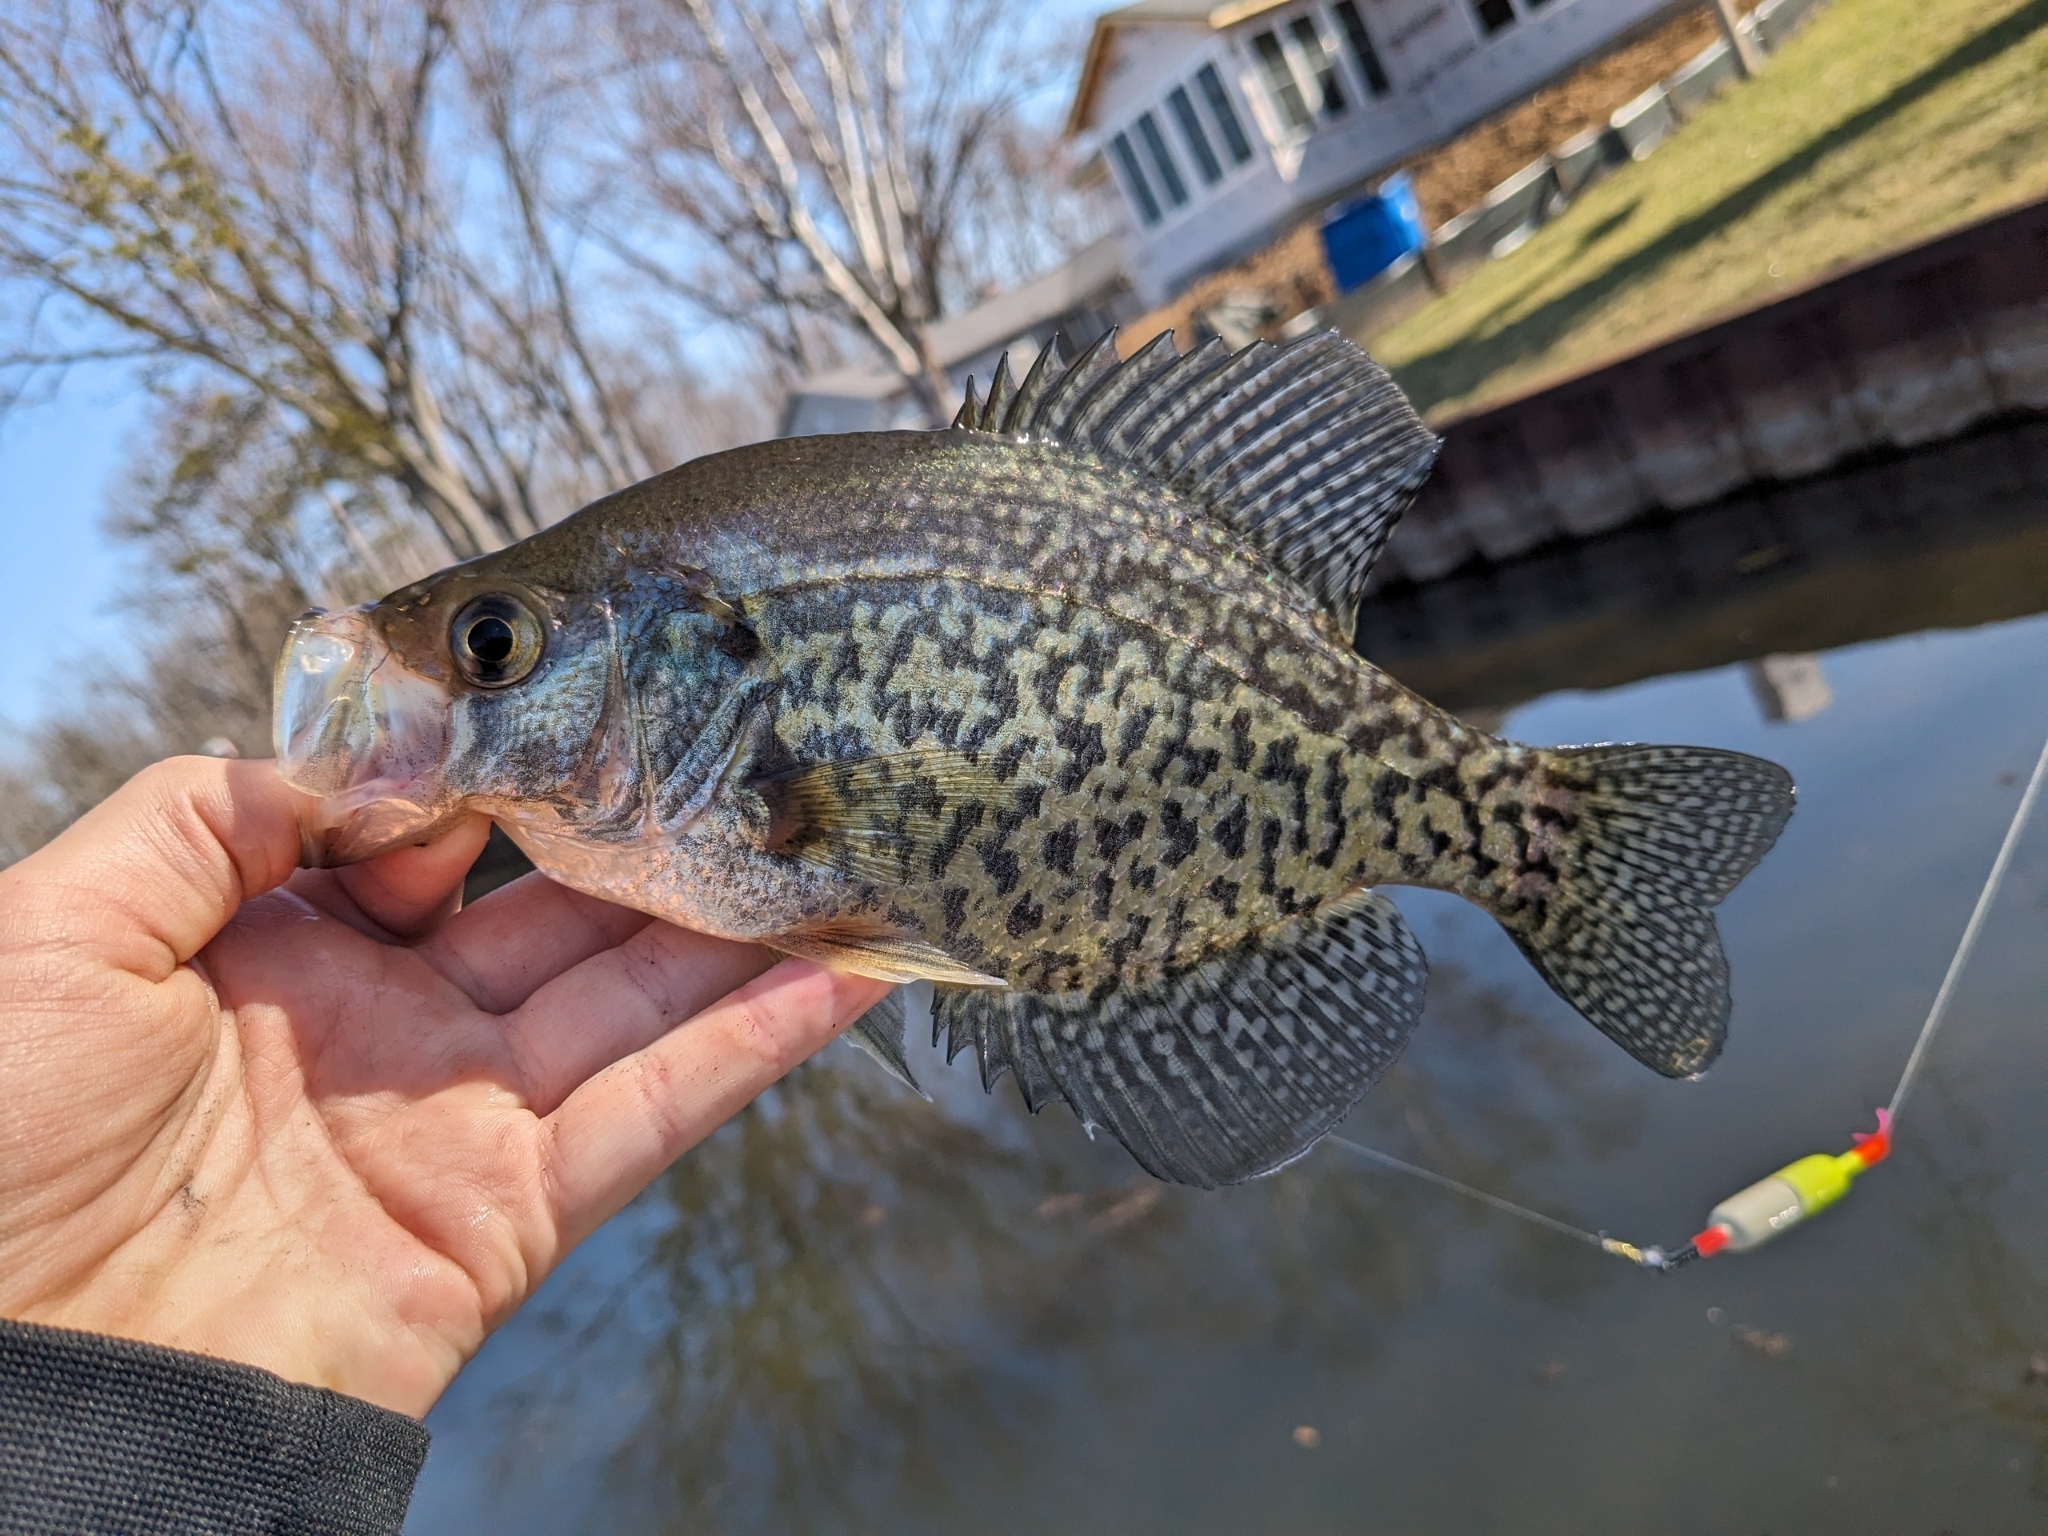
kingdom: Animalia
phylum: Chordata
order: Perciformes
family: Centrarchidae
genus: Pomoxis
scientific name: Pomoxis nigromaculatus
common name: Black crappie
